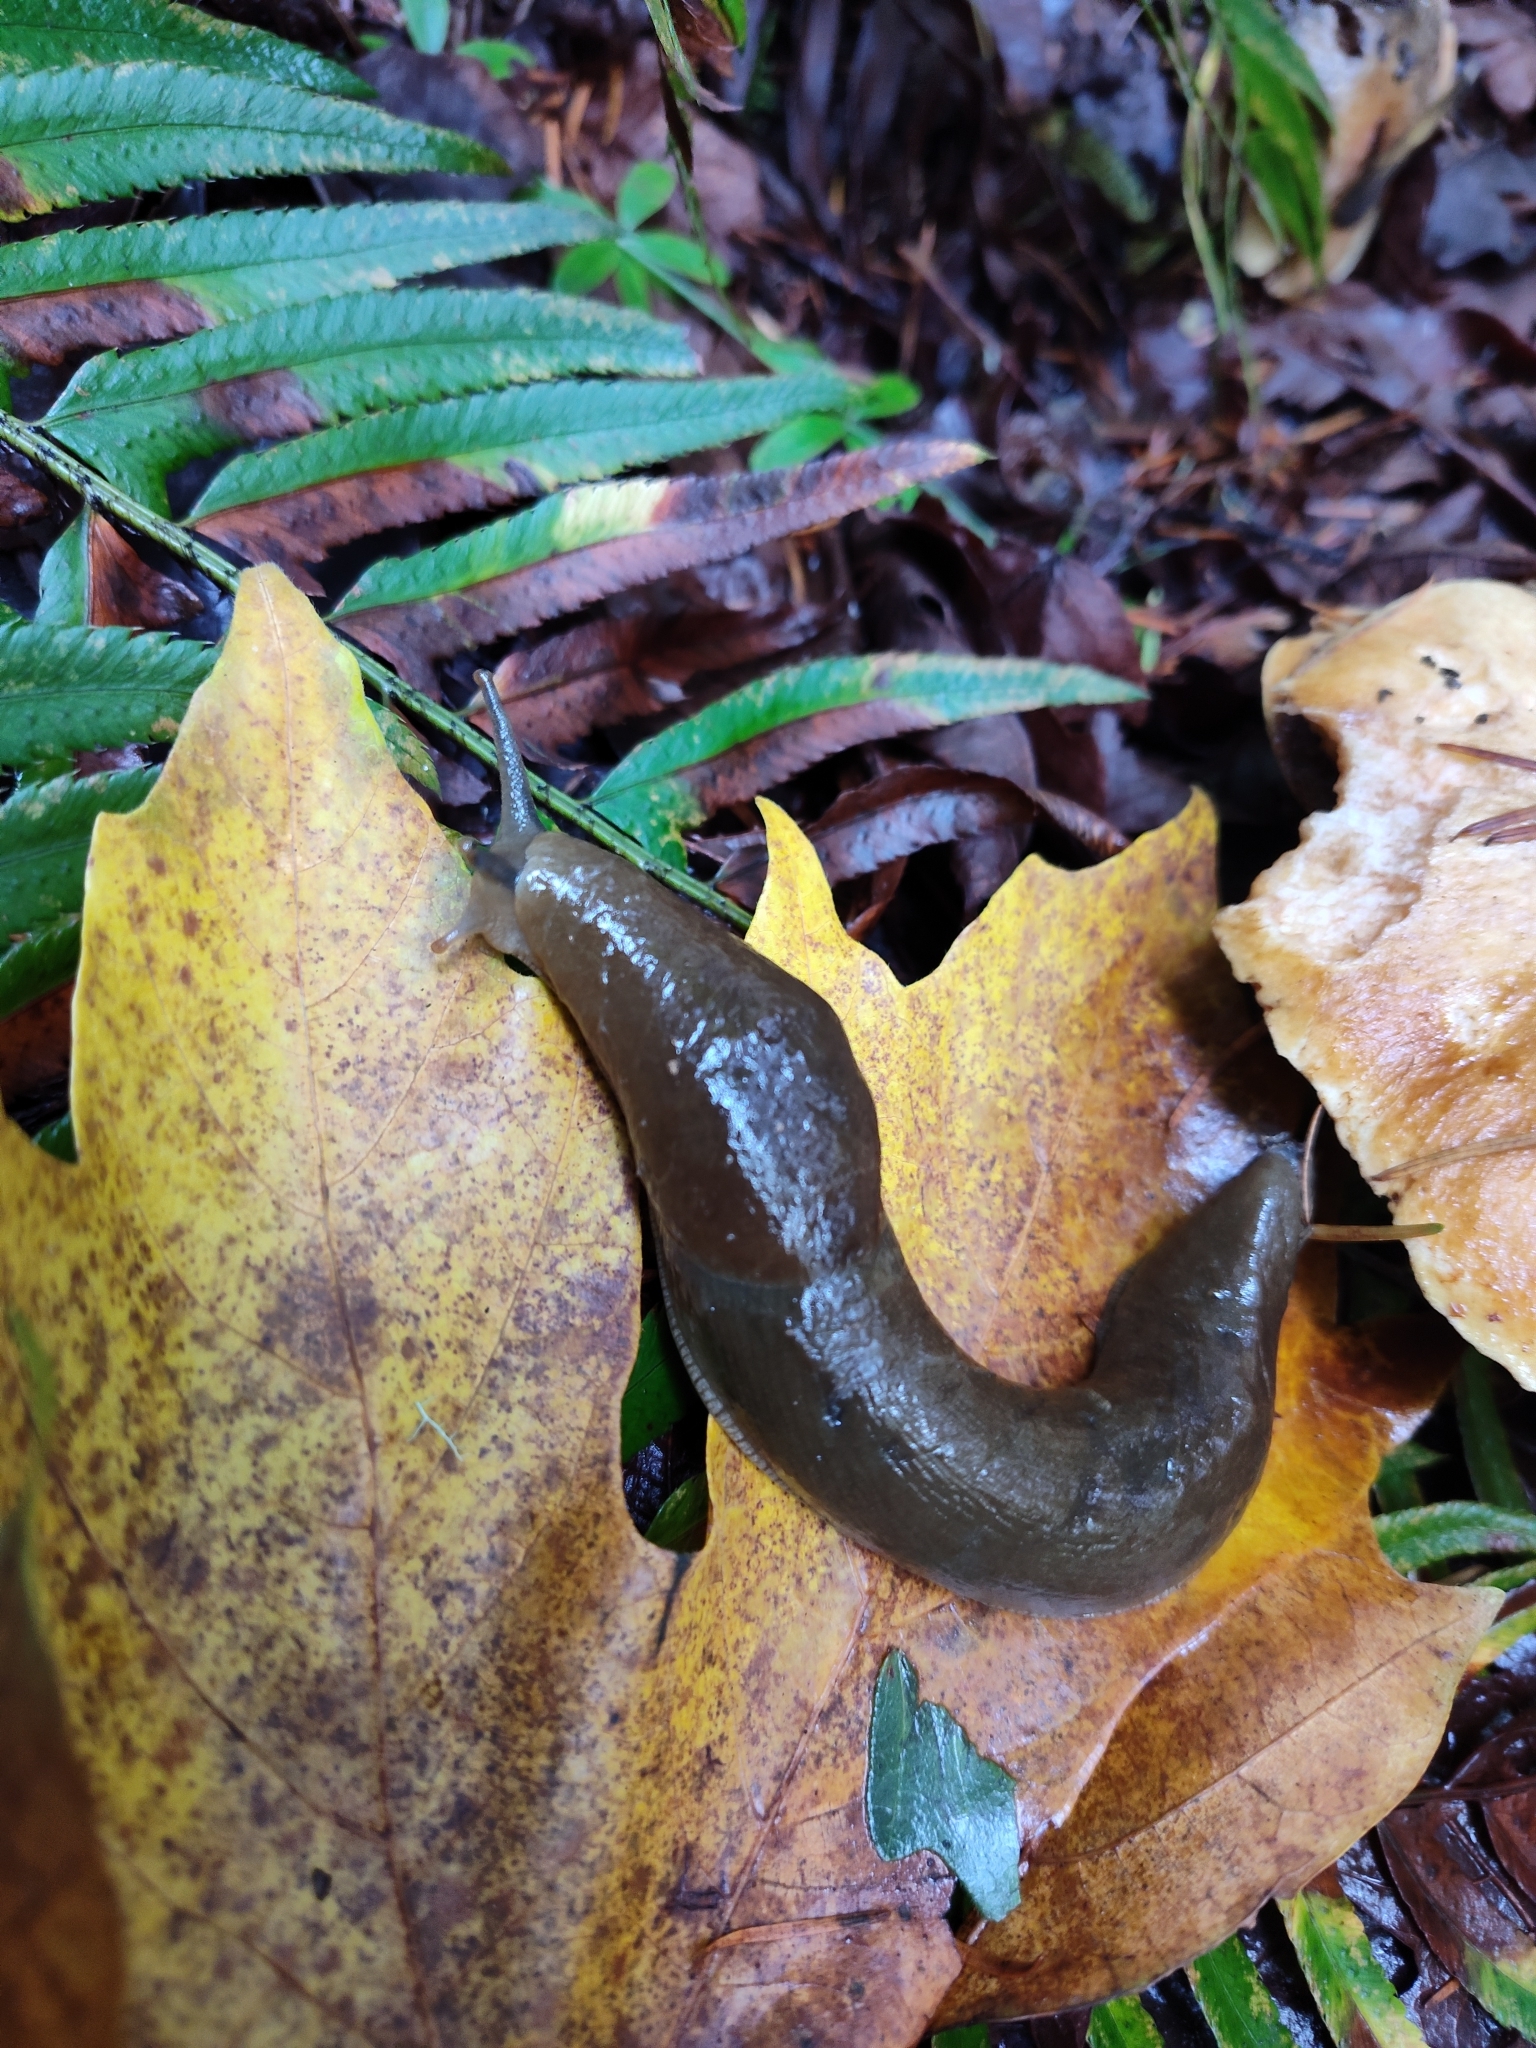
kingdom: Animalia
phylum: Mollusca
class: Gastropoda
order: Stylommatophora
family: Ariolimacidae
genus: Ariolimax
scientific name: Ariolimax columbianus
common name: Pacific banana slug
